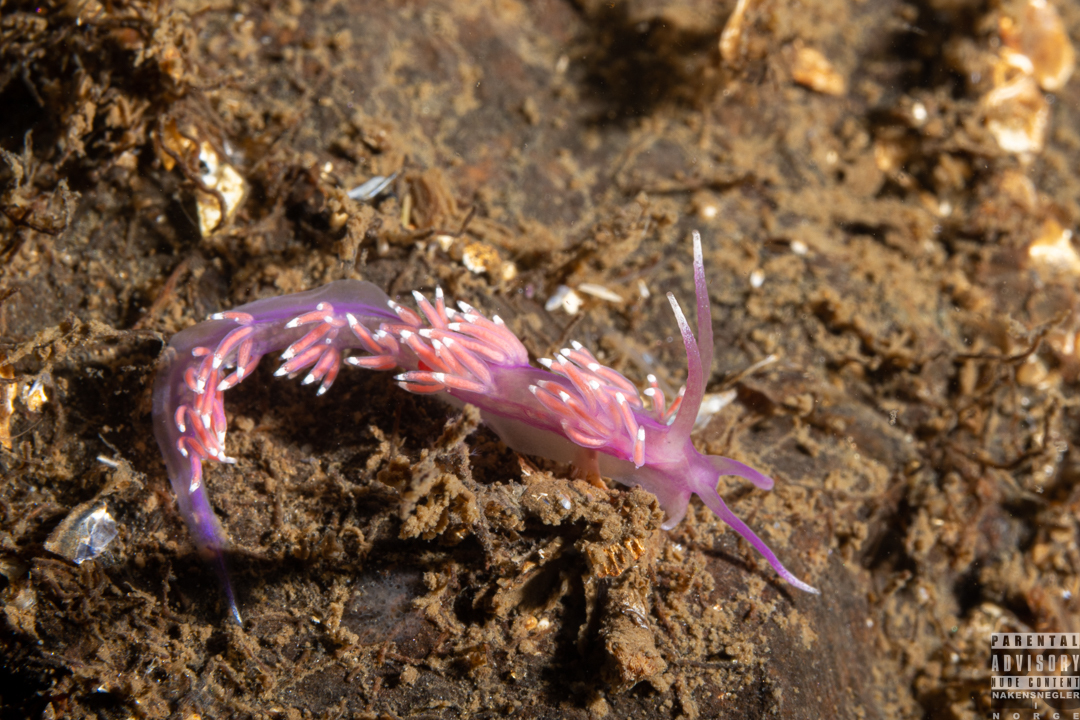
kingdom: Animalia
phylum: Mollusca
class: Gastropoda
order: Nudibranchia
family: Flabellinidae
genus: Edmundsella
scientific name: Edmundsella pedata
